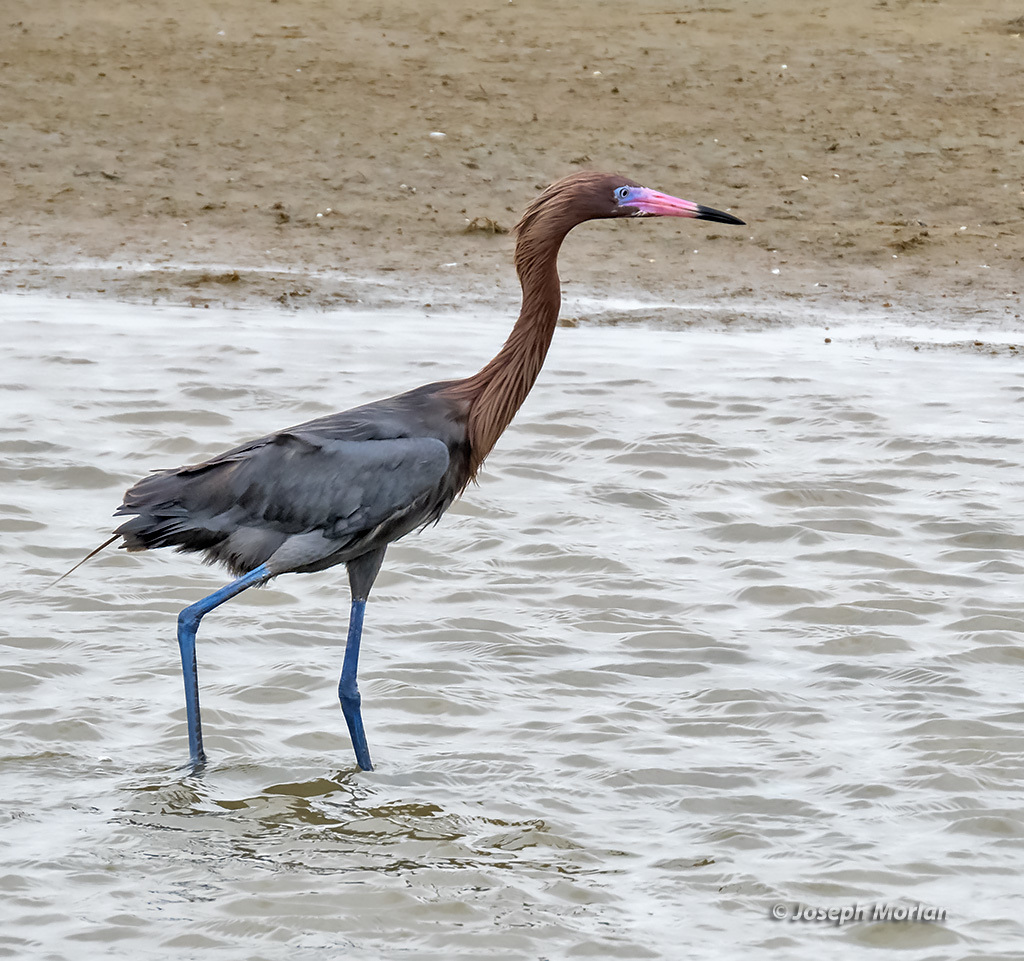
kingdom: Animalia
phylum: Chordata
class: Aves
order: Pelecaniformes
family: Ardeidae
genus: Egretta
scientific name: Egretta rufescens
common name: Reddish egret
